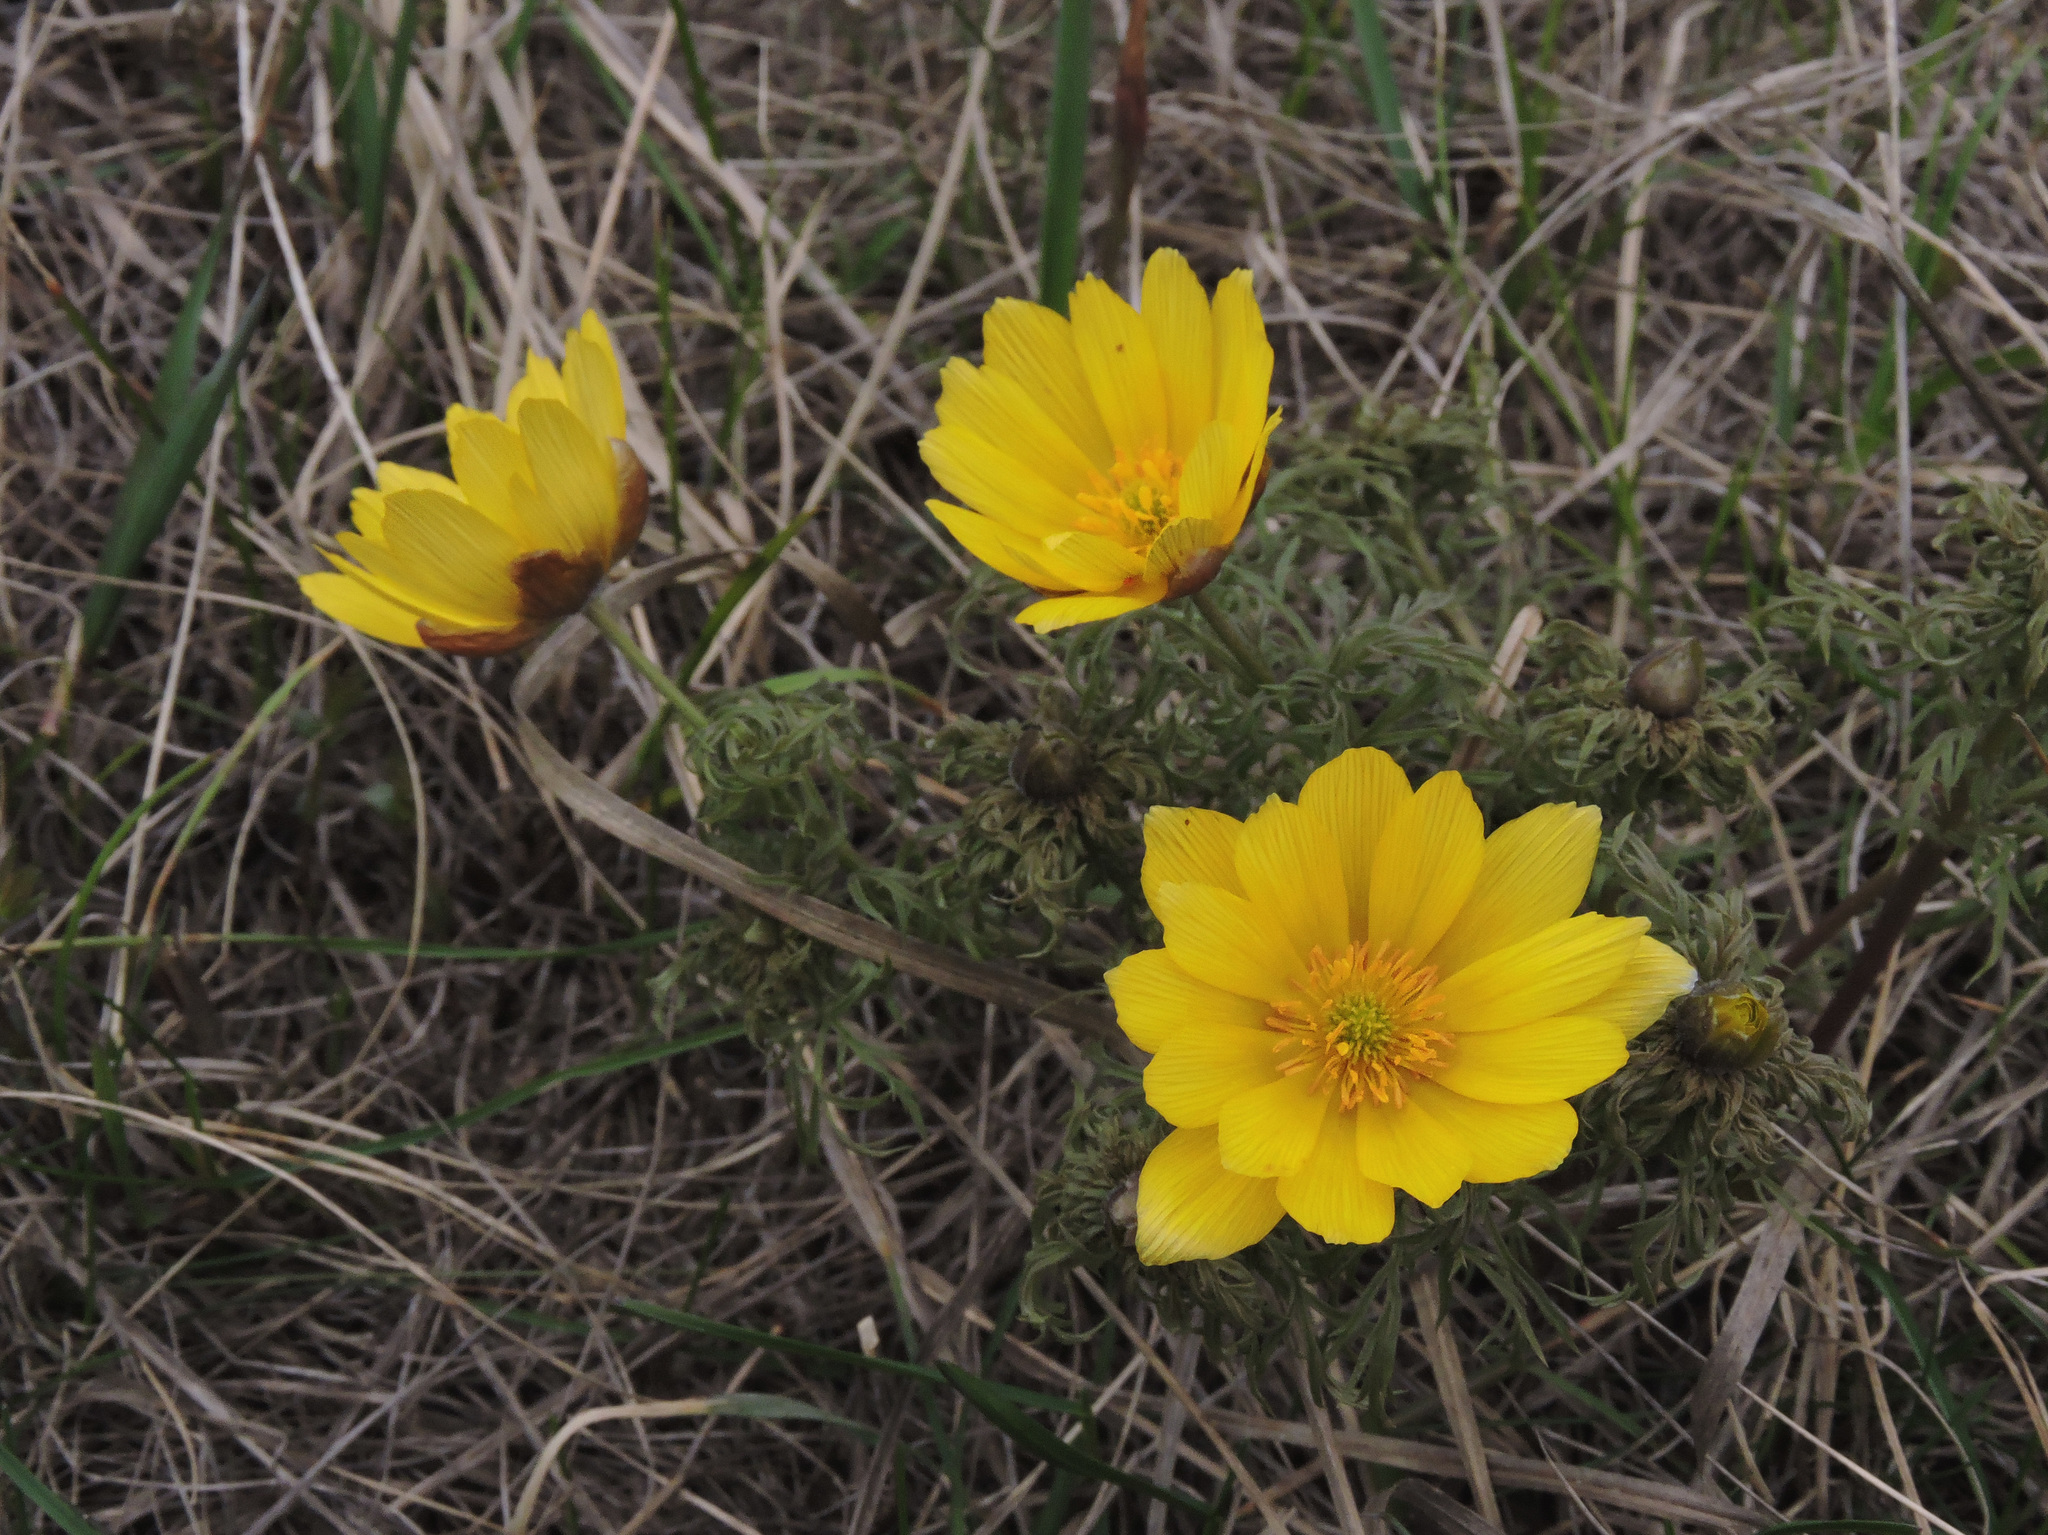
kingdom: Plantae
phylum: Tracheophyta
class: Magnoliopsida
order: Ranunculales
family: Ranunculaceae
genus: Adonis
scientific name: Adonis volgensis
